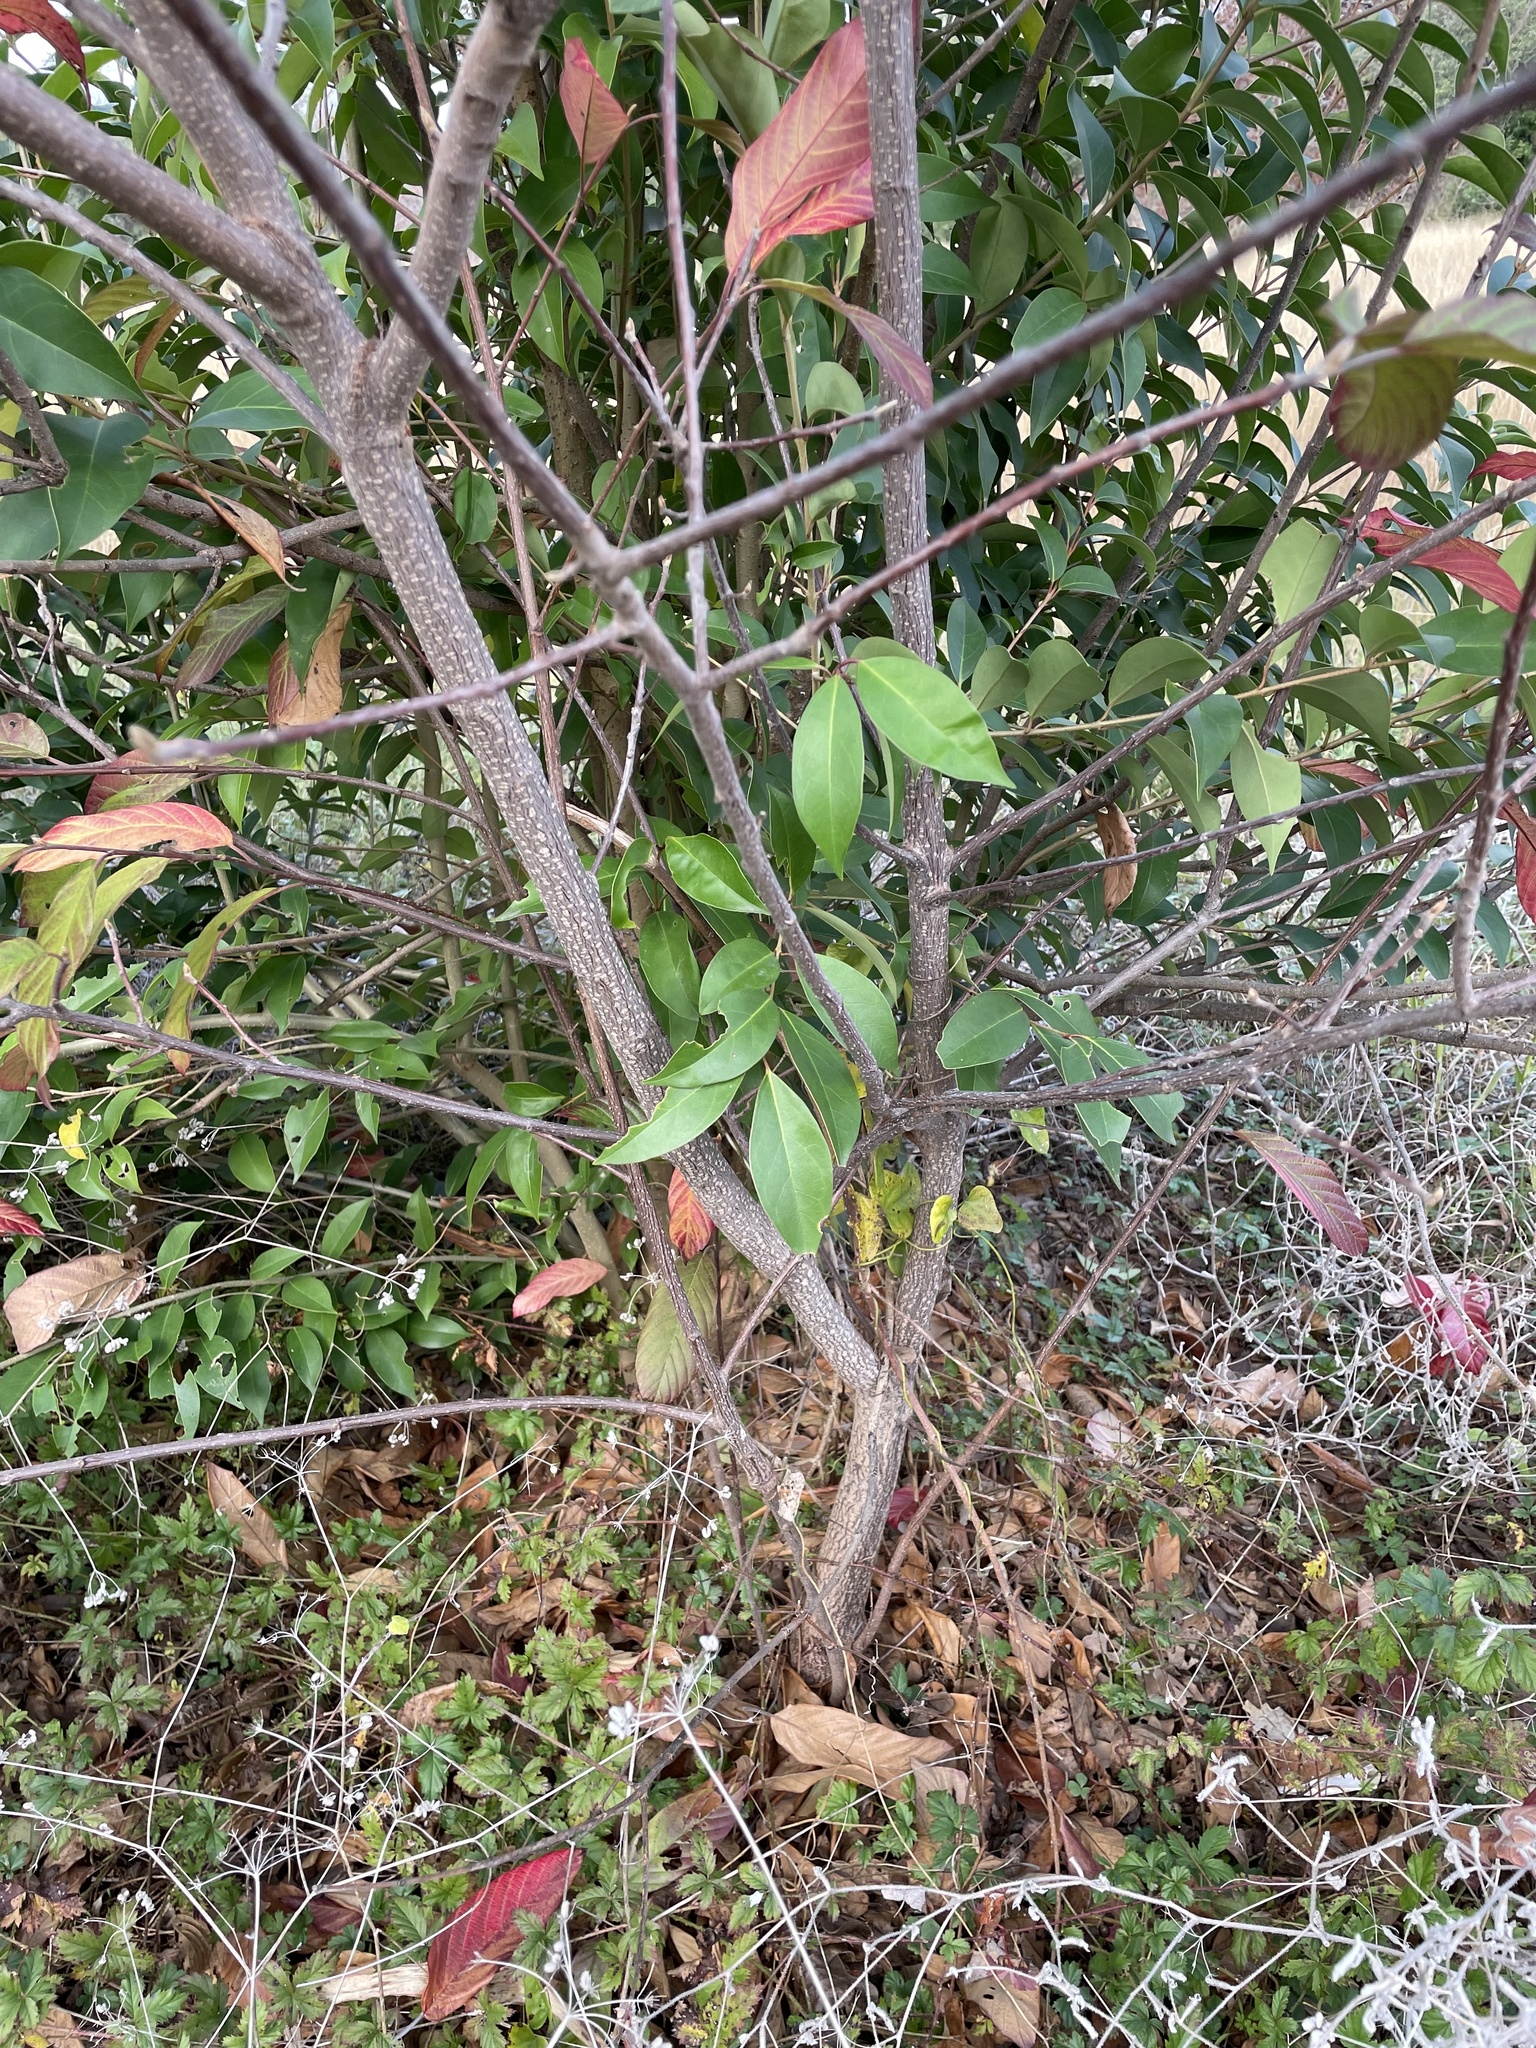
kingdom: Plantae
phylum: Tracheophyta
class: Magnoliopsida
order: Rosales
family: Rhamnaceae
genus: Frangula
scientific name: Frangula caroliniana
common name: Carolina buckthorn
